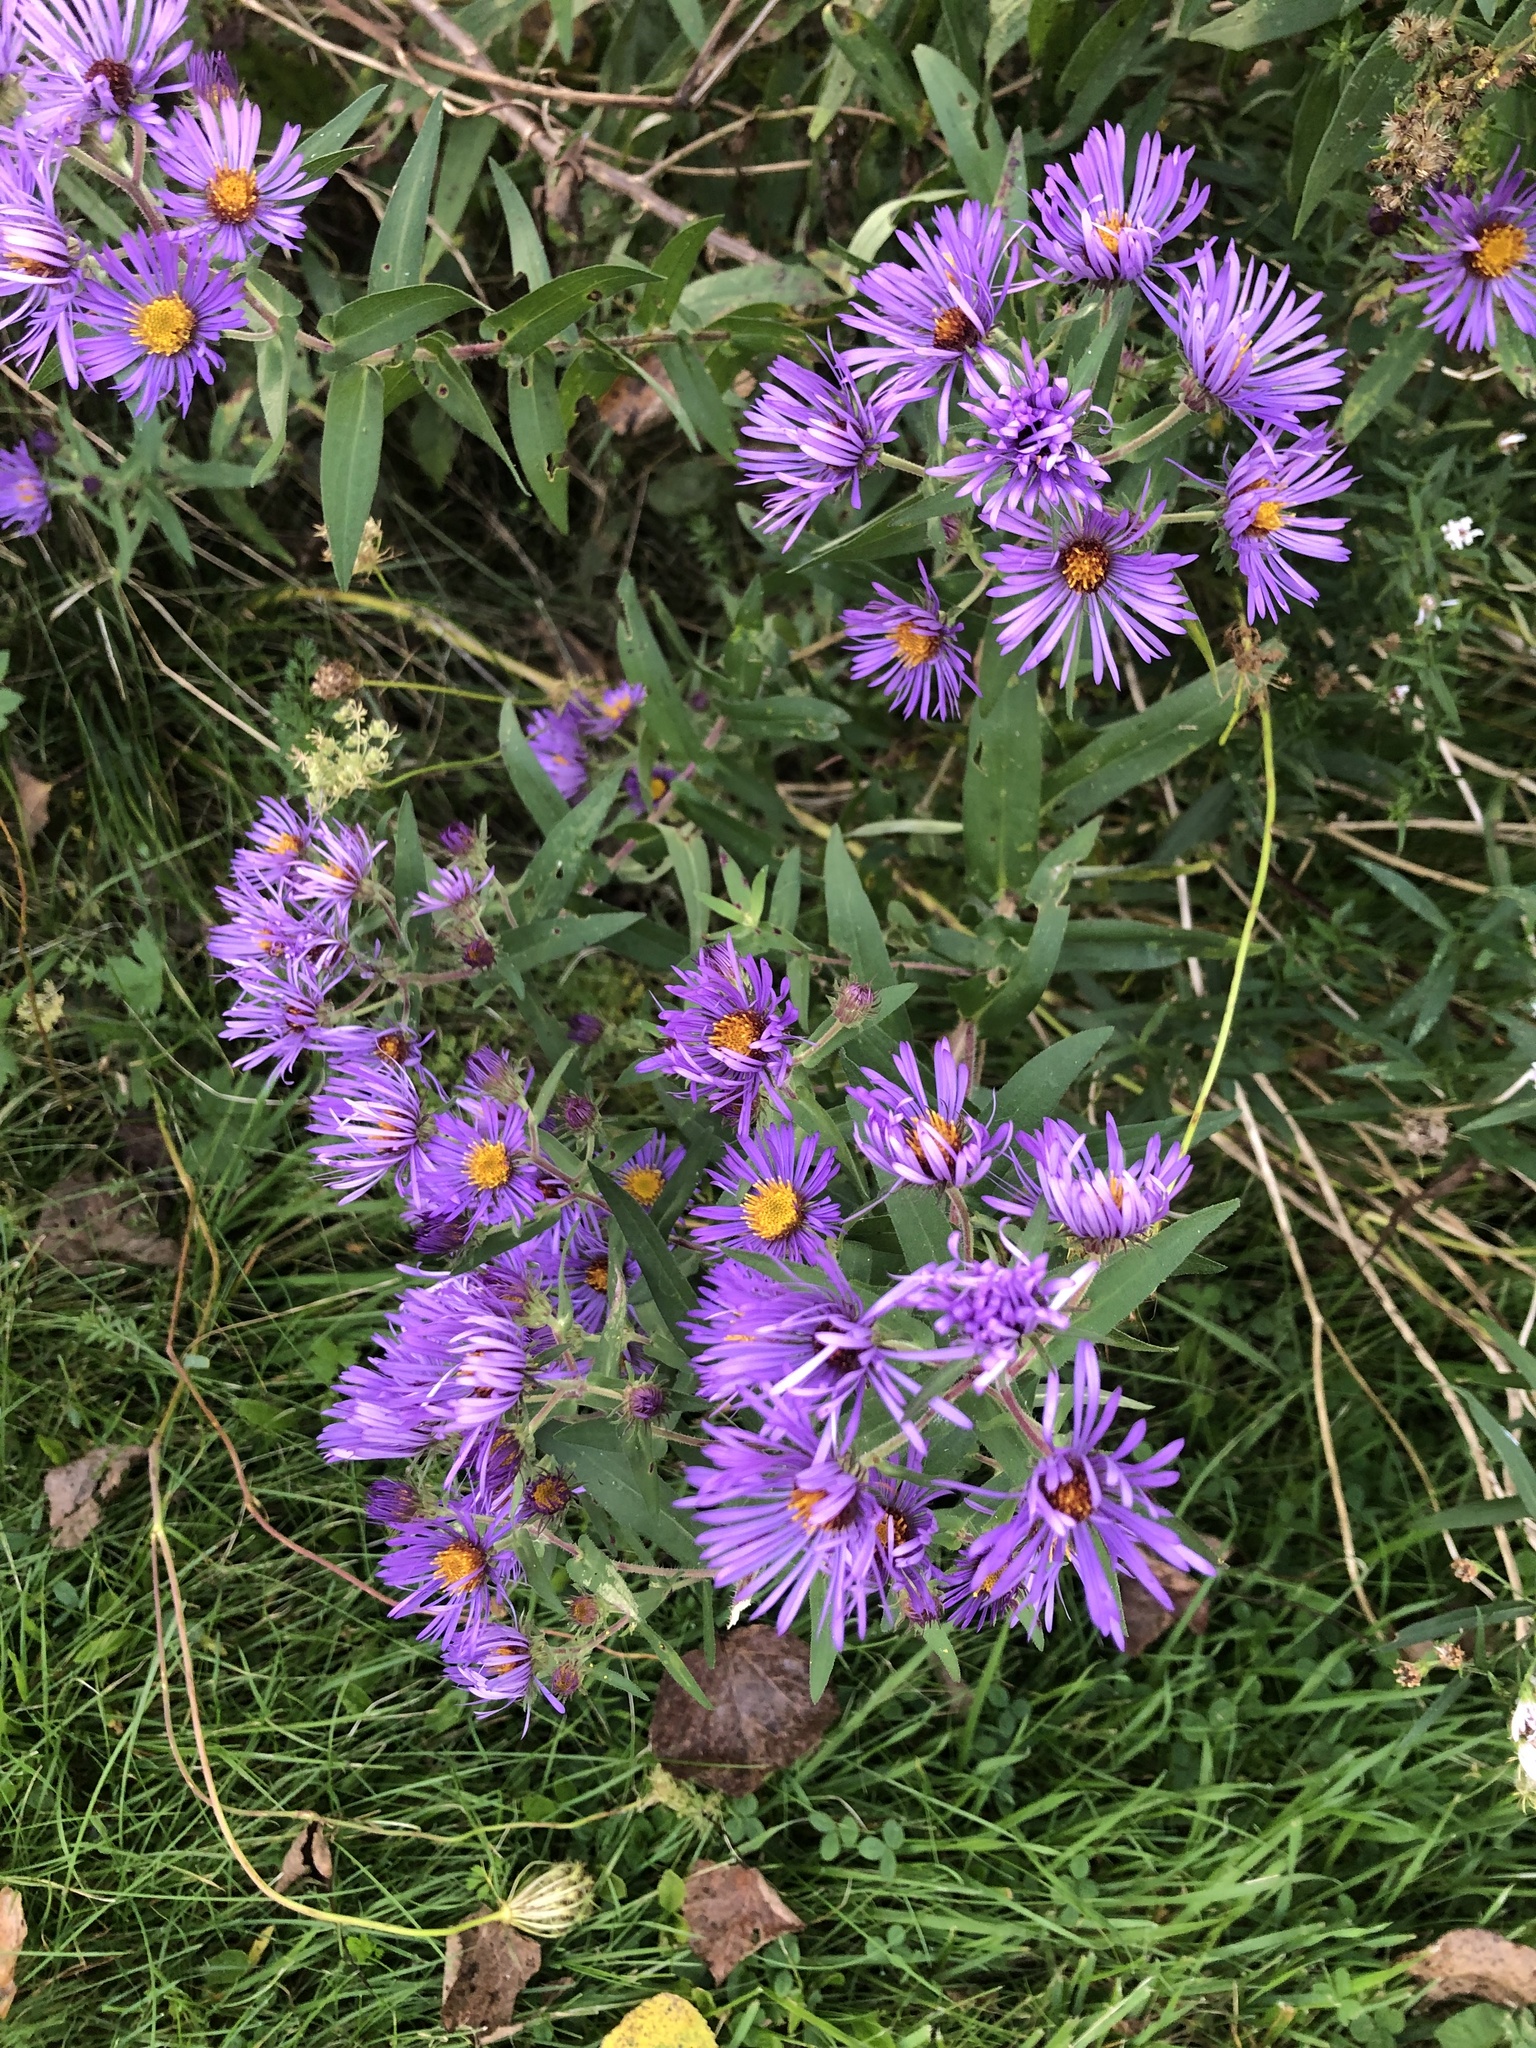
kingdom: Plantae
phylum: Tracheophyta
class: Magnoliopsida
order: Asterales
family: Asteraceae
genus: Symphyotrichum
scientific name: Symphyotrichum novae-angliae
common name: Michaelmas daisy
